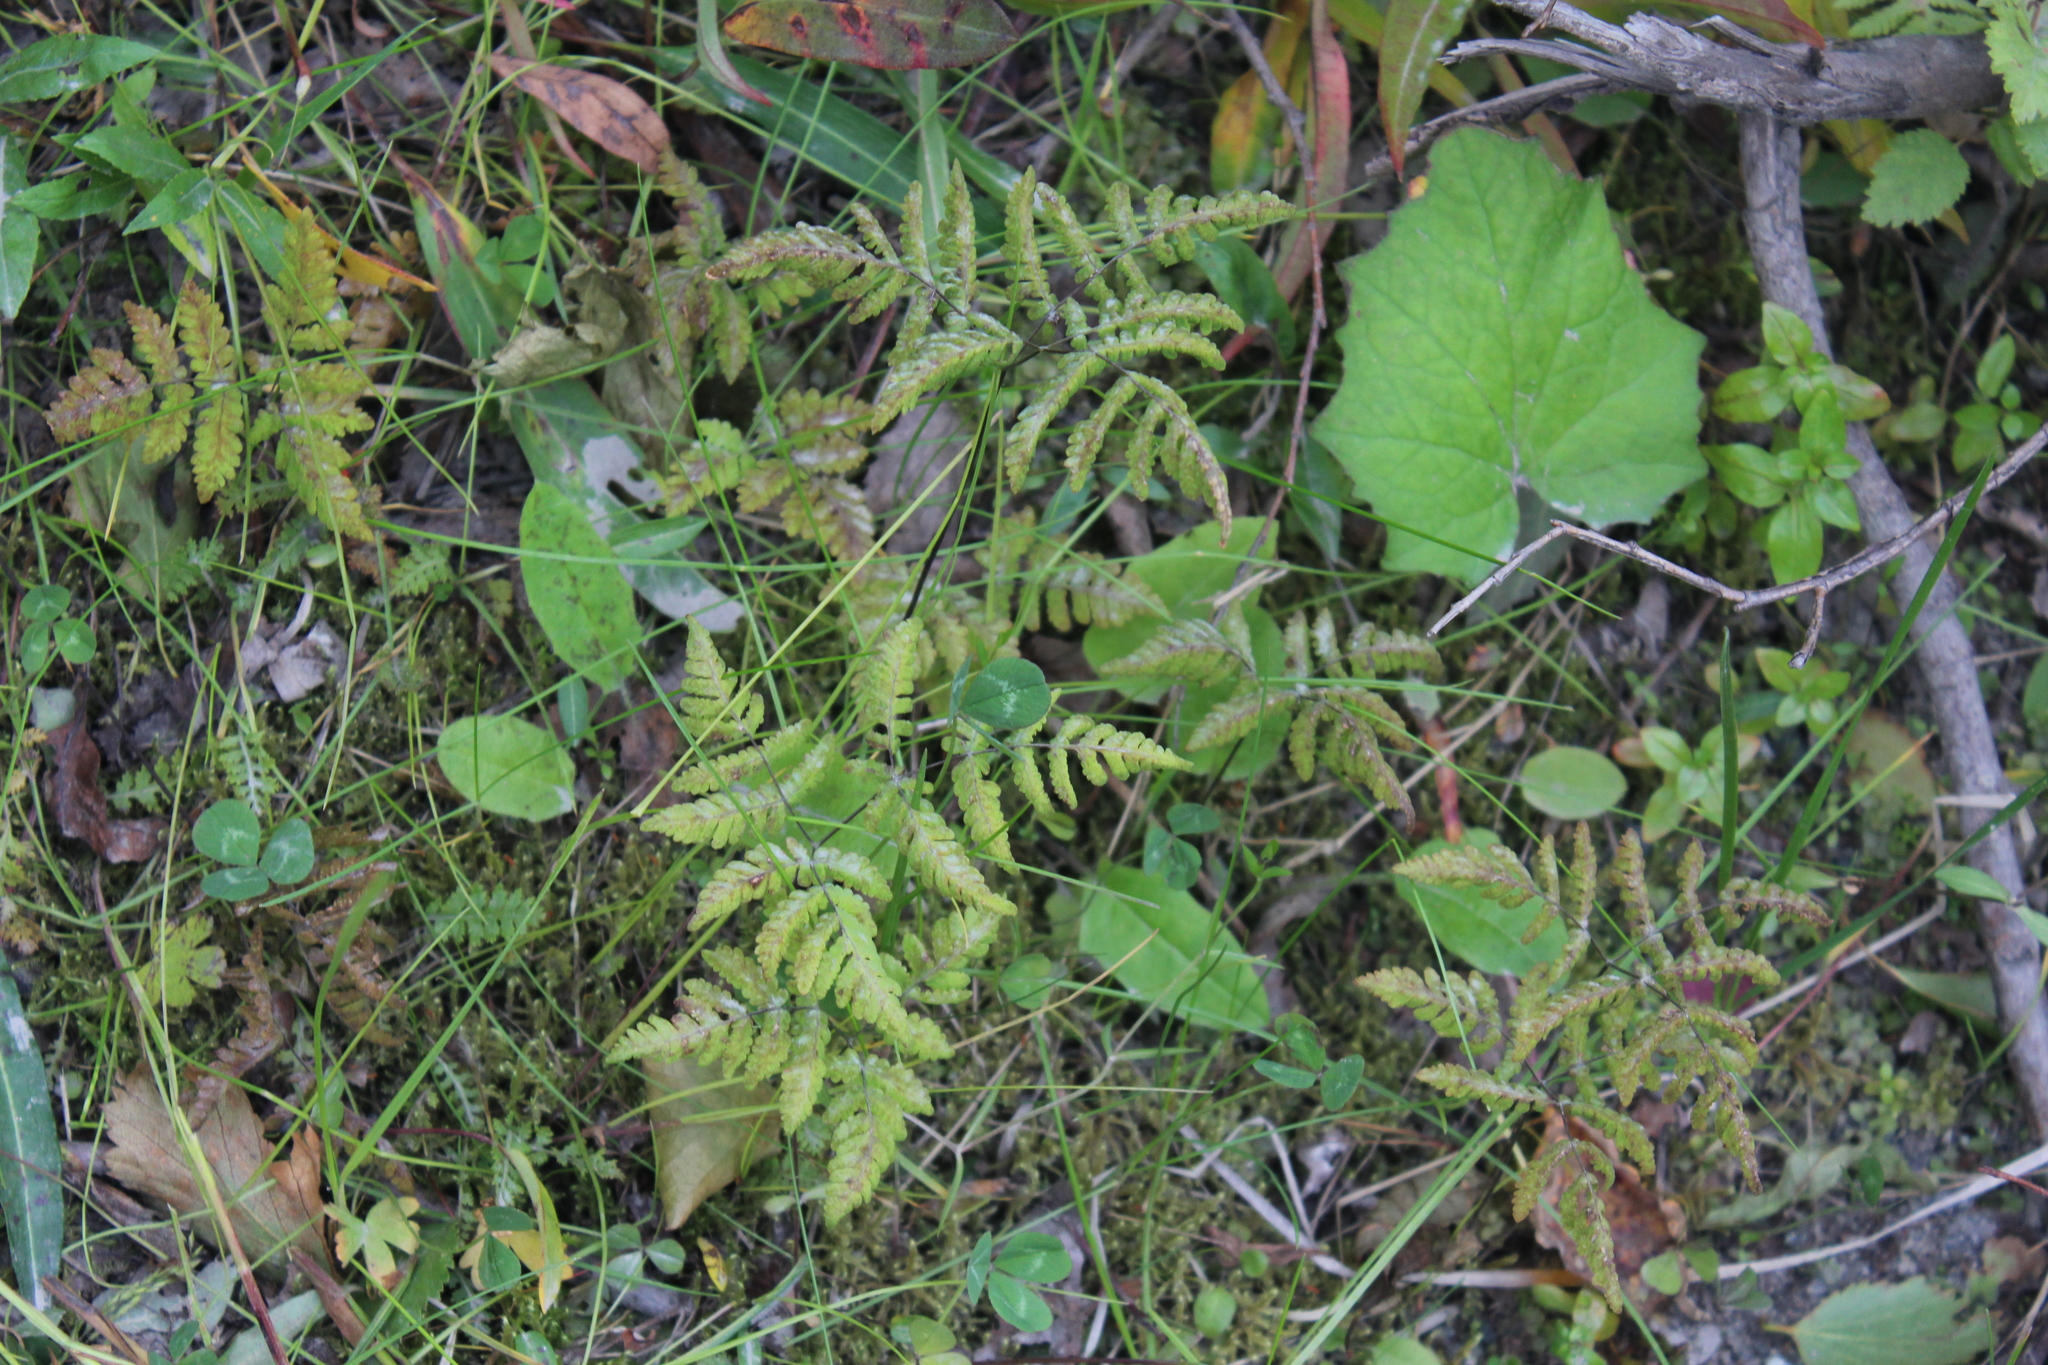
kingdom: Plantae
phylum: Tracheophyta
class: Polypodiopsida
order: Polypodiales
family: Cystopteridaceae
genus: Gymnocarpium
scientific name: Gymnocarpium dryopteris
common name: Oak fern
